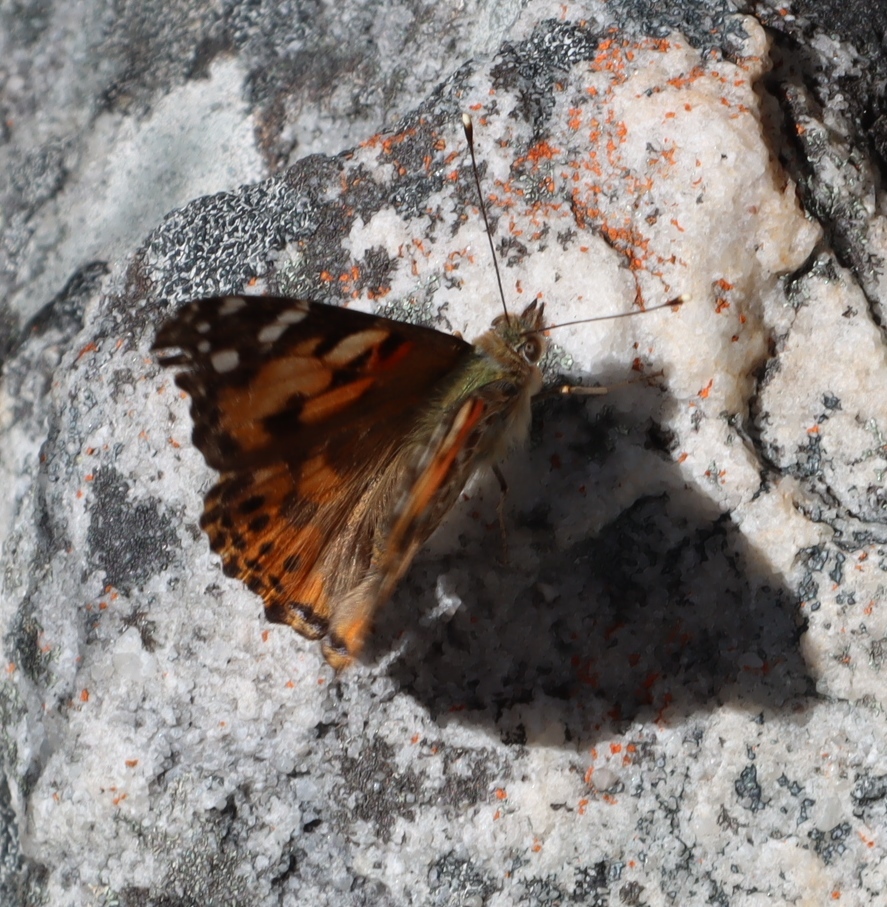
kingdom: Animalia
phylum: Arthropoda
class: Insecta
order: Lepidoptera
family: Nymphalidae
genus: Vanessa
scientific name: Vanessa cardui
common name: Painted lady
